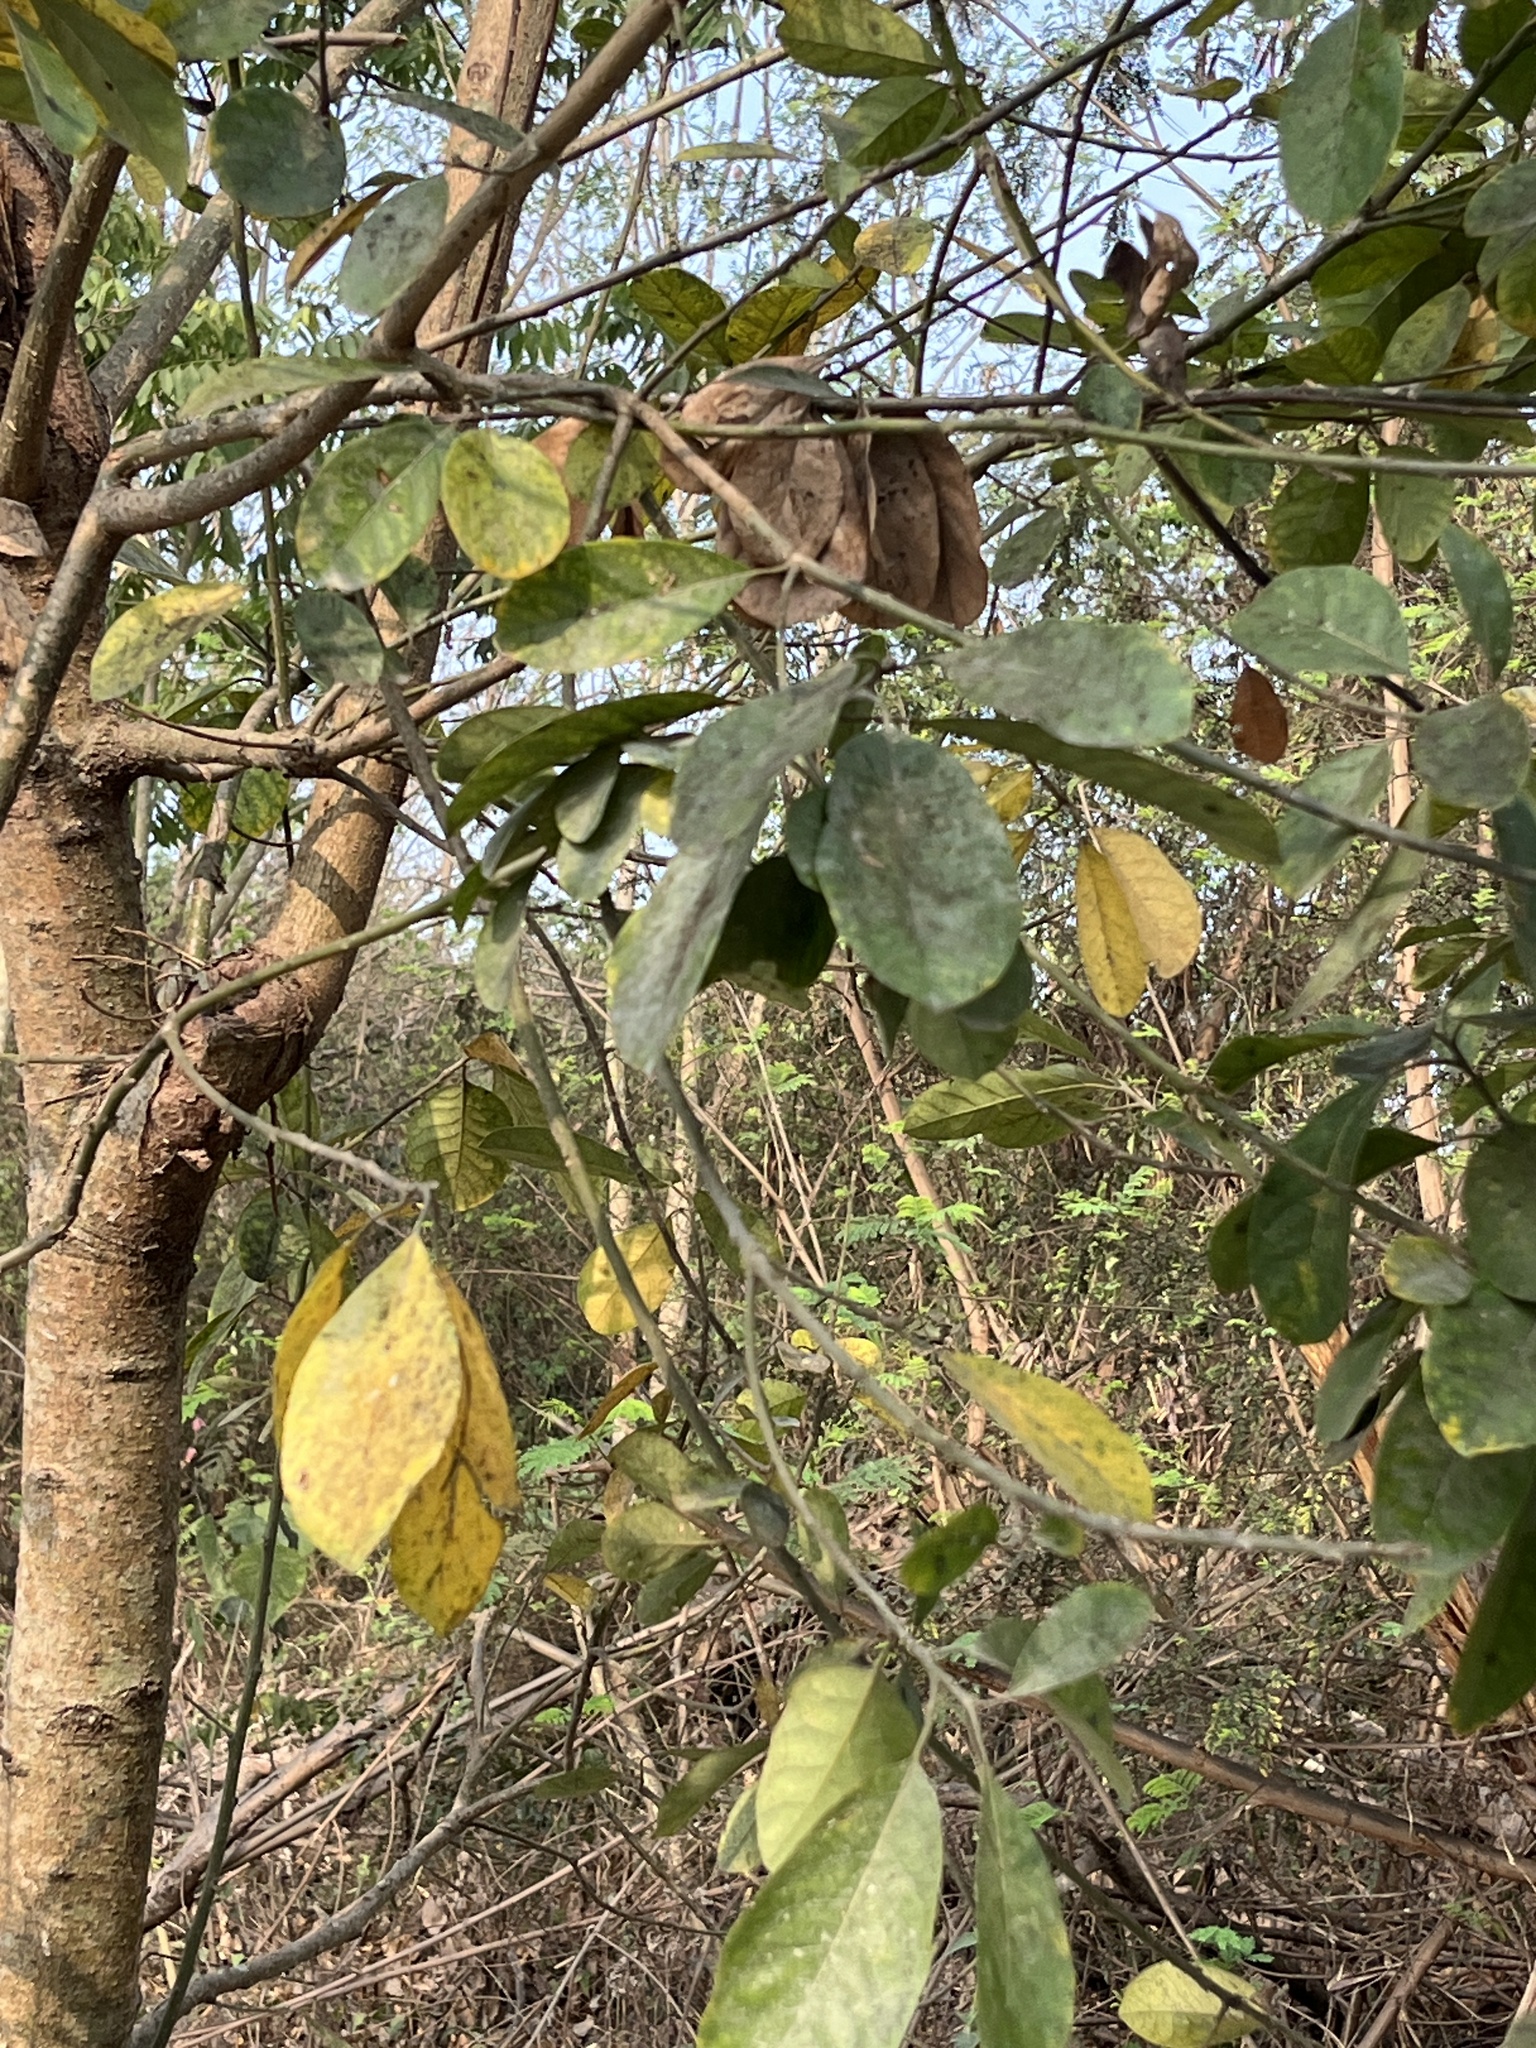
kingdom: Plantae
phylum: Tracheophyta
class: Magnoliopsida
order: Laurales
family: Lauraceae
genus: Litsea
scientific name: Litsea glutinosa
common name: Indian-laurel
